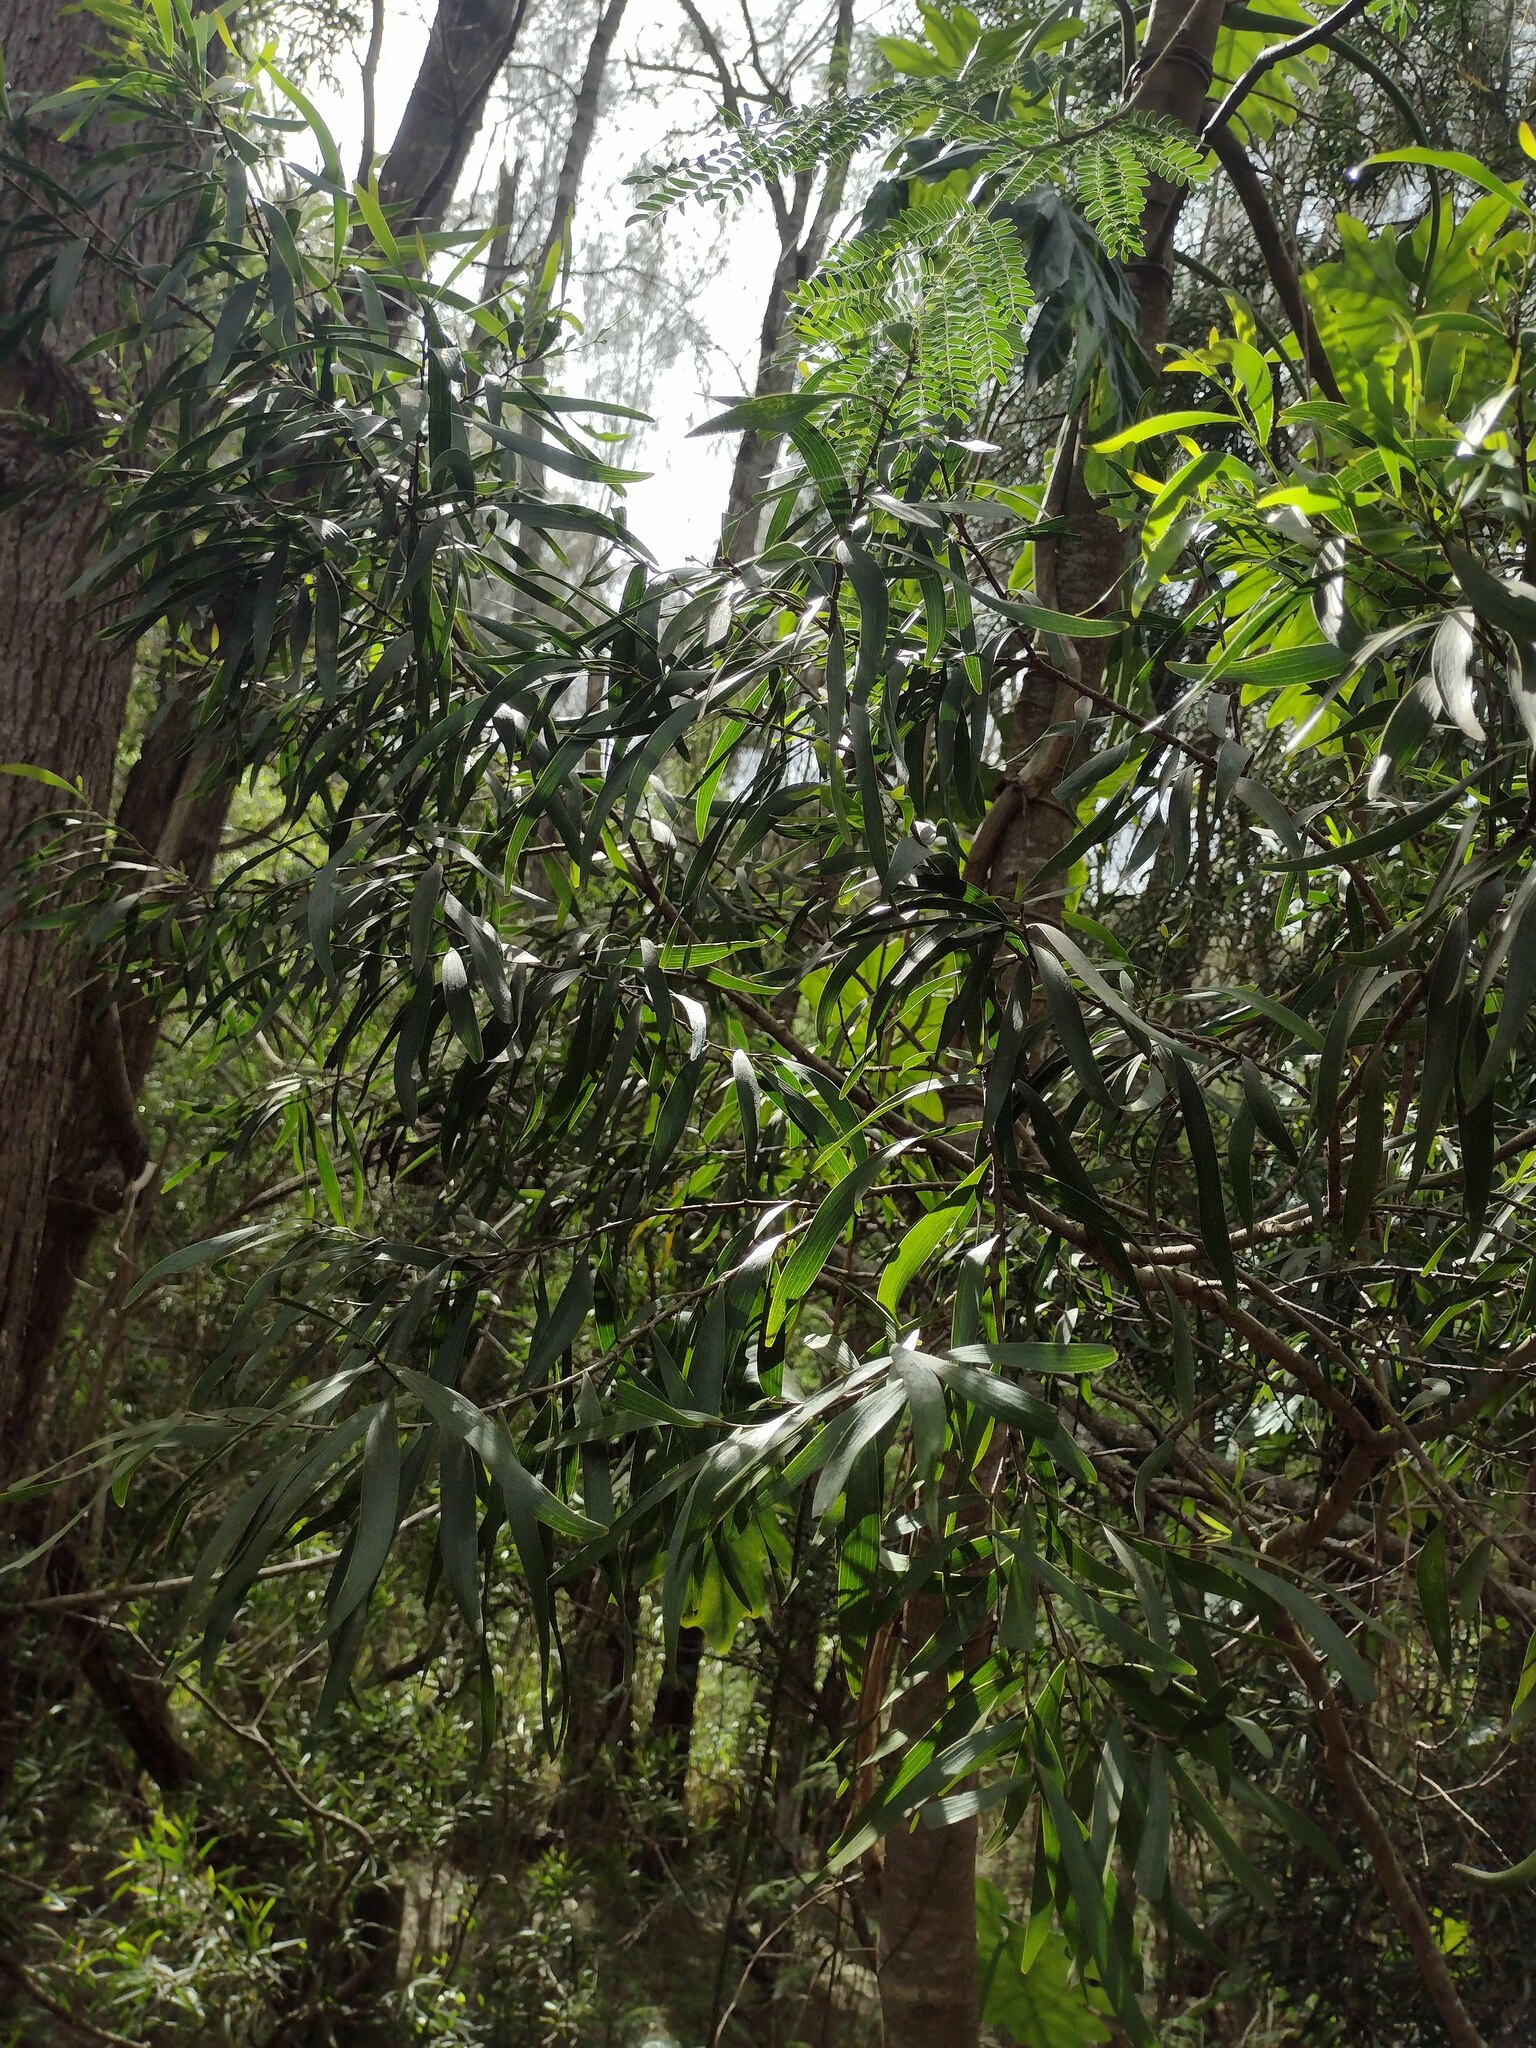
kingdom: Plantae
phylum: Tracheophyta
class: Magnoliopsida
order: Fabales
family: Fabaceae
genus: Acacia
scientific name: Acacia confusa
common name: Formosan koa
